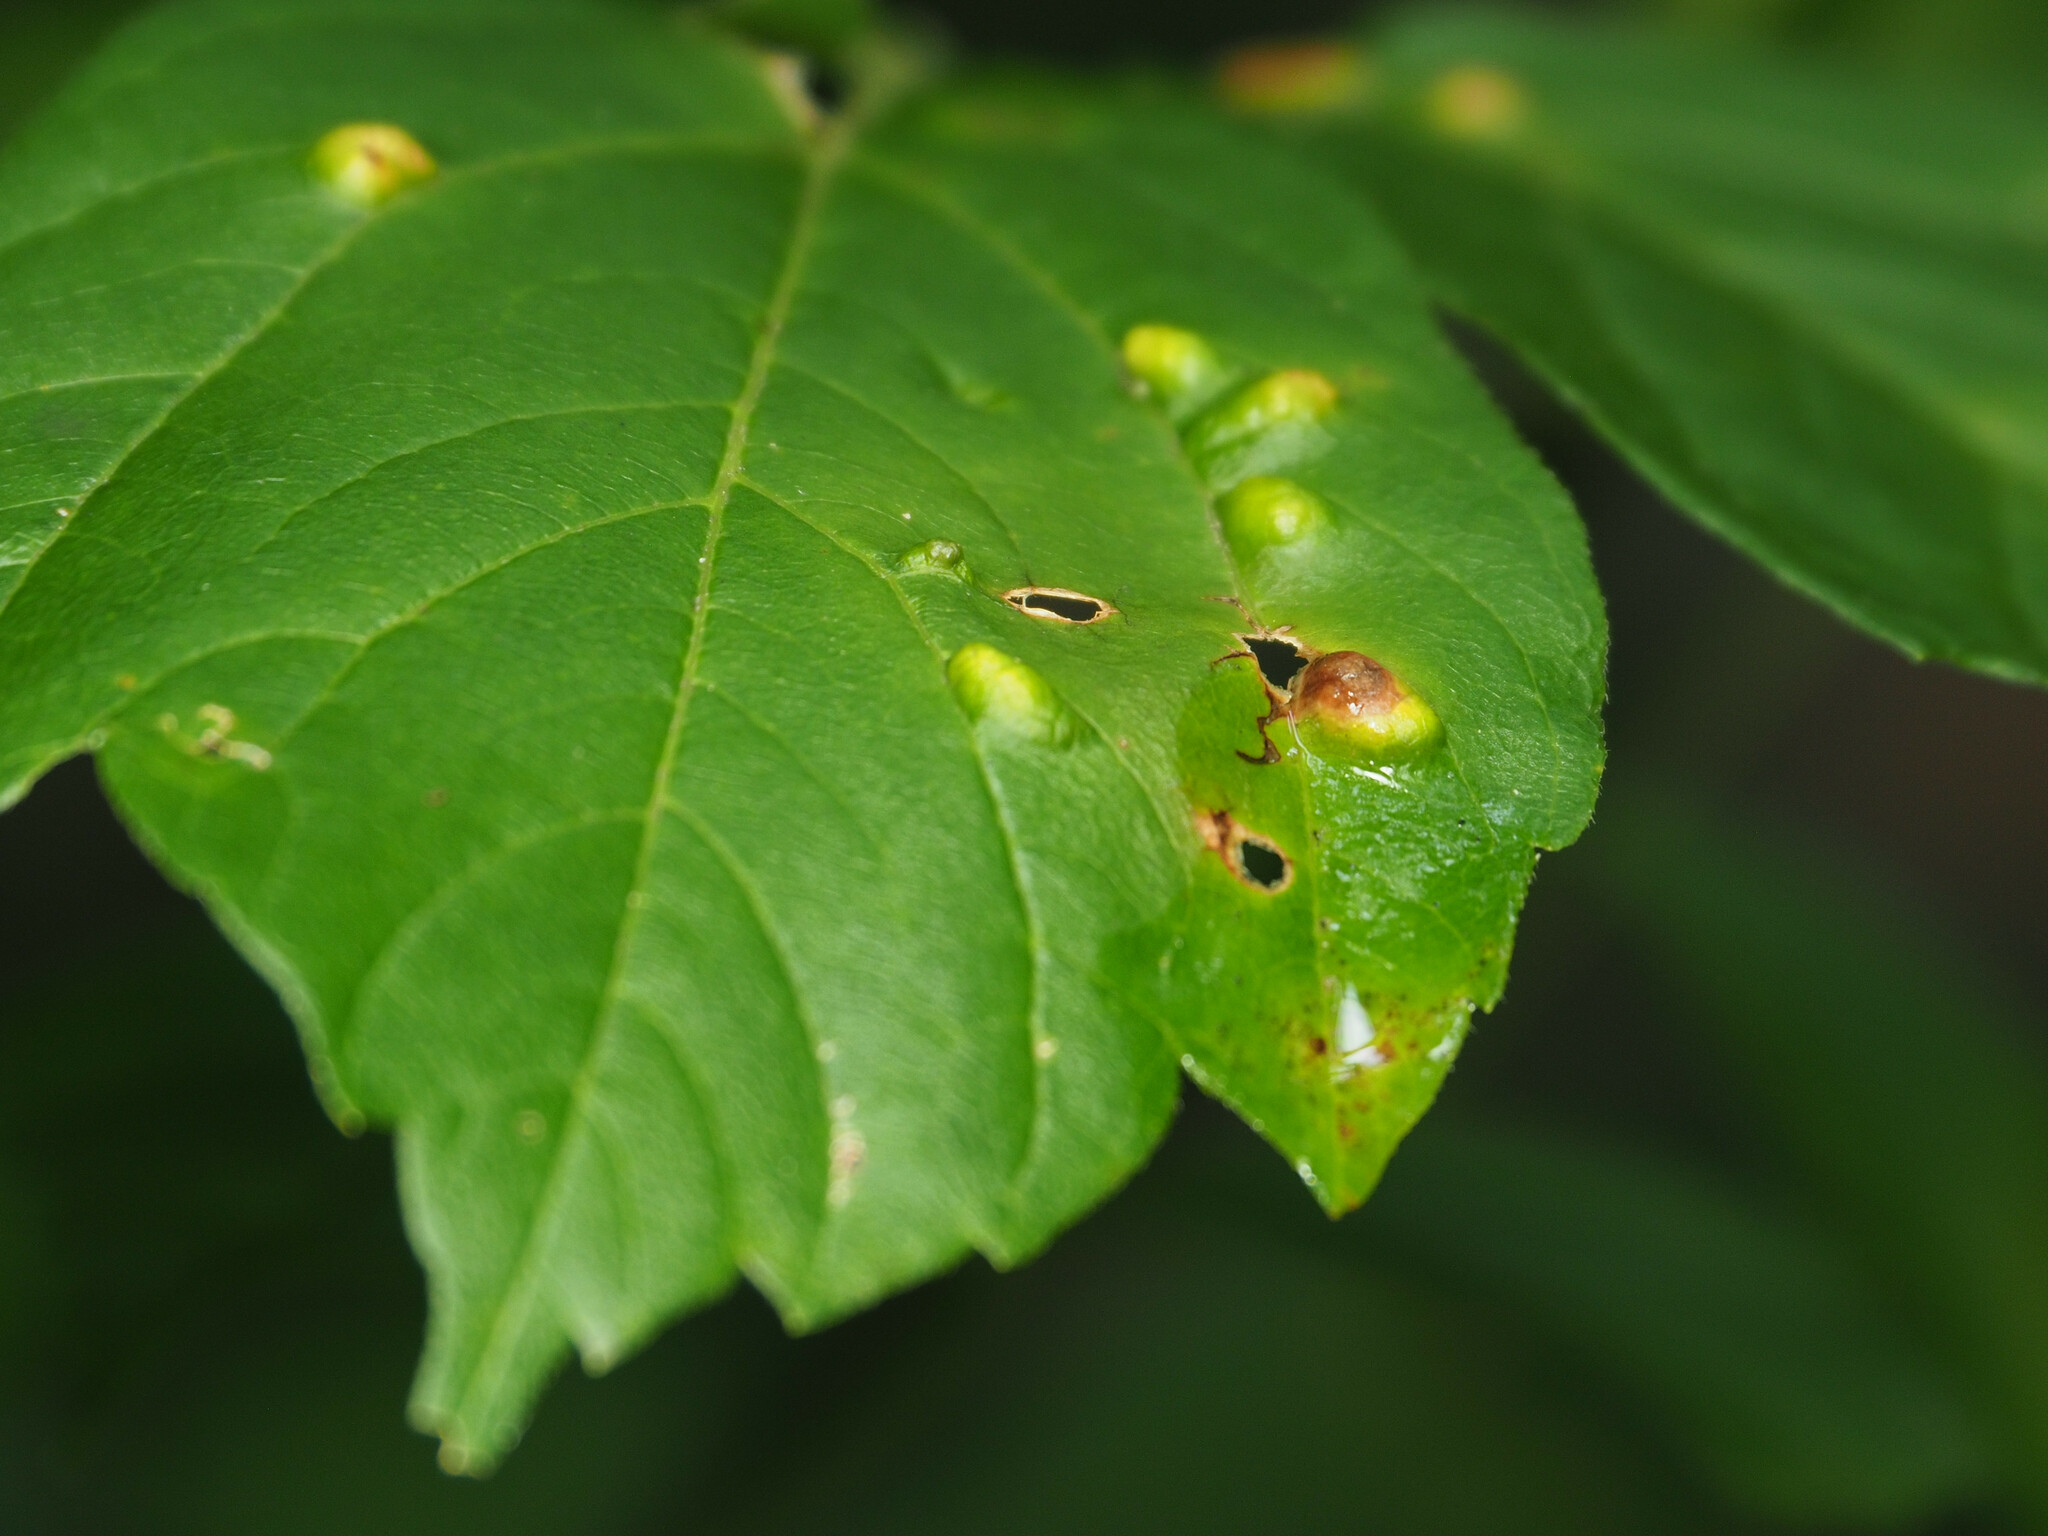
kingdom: Animalia
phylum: Arthropoda
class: Arachnida
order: Trombidiformes
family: Eriophyidae
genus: Aceria
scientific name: Aceria
